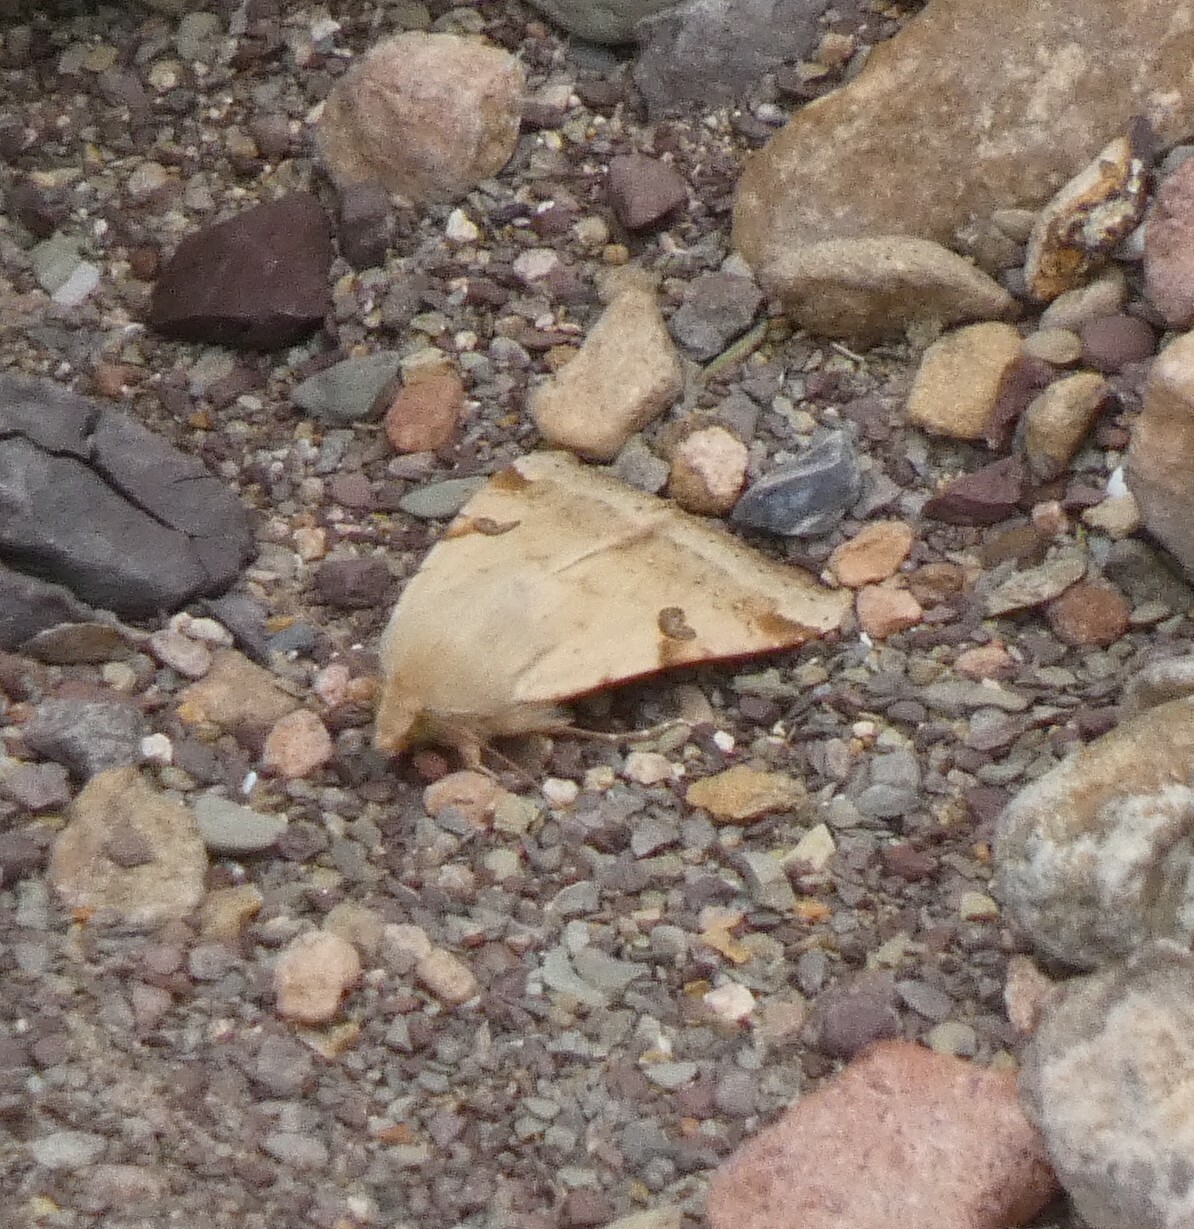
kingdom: Animalia
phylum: Arthropoda
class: Insecta
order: Lepidoptera
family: Noctuidae
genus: Heliothis
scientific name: Heliothis peltigera
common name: Bordered straw
